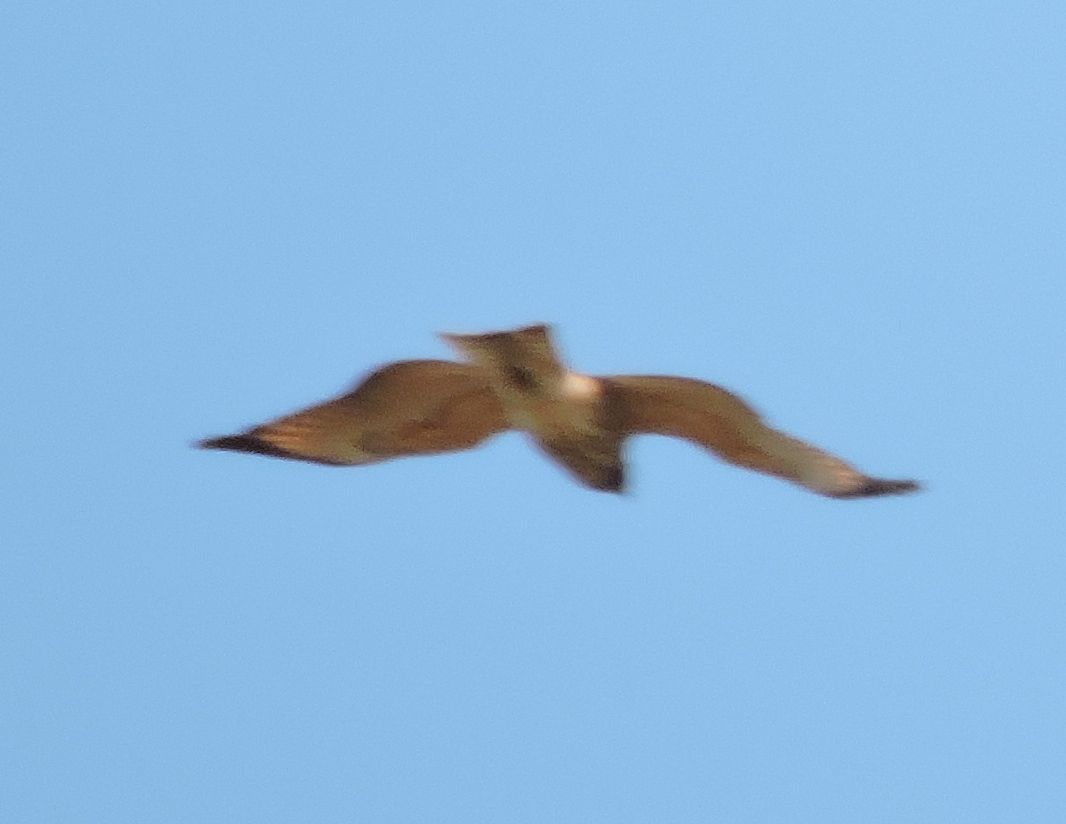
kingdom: Animalia
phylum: Chordata
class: Aves
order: Accipitriformes
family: Accipitridae
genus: Buteo
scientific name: Buteo platypterus
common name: Broad-winged hawk
